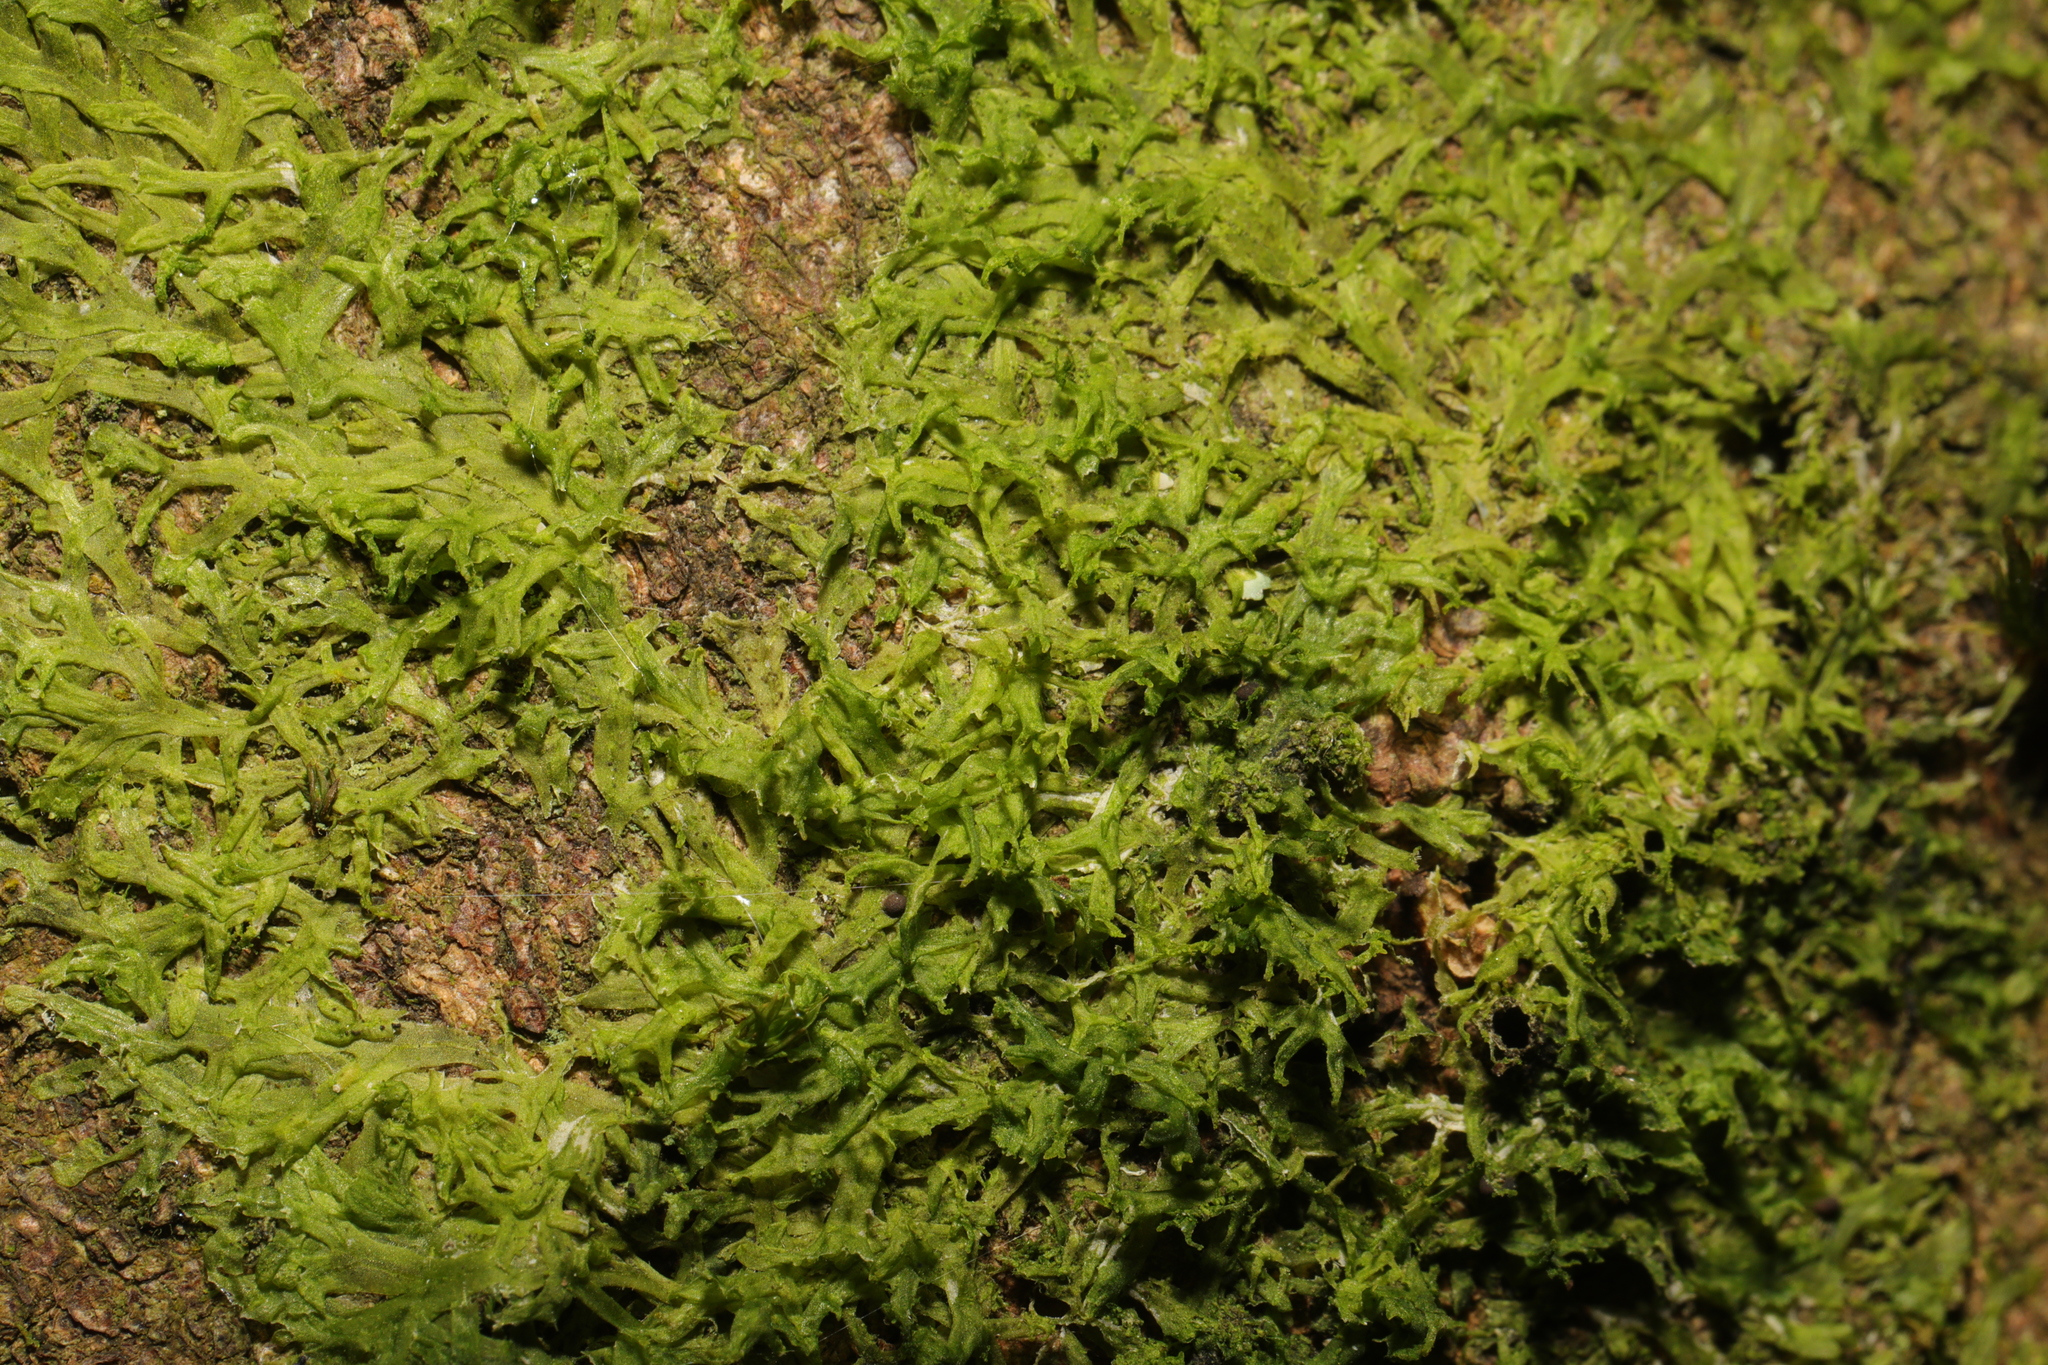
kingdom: Plantae
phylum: Marchantiophyta
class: Jungermanniopsida
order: Metzgeriales
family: Metzgeriaceae
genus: Metzgeria
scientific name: Metzgeria violacea
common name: Blueish veilwort
